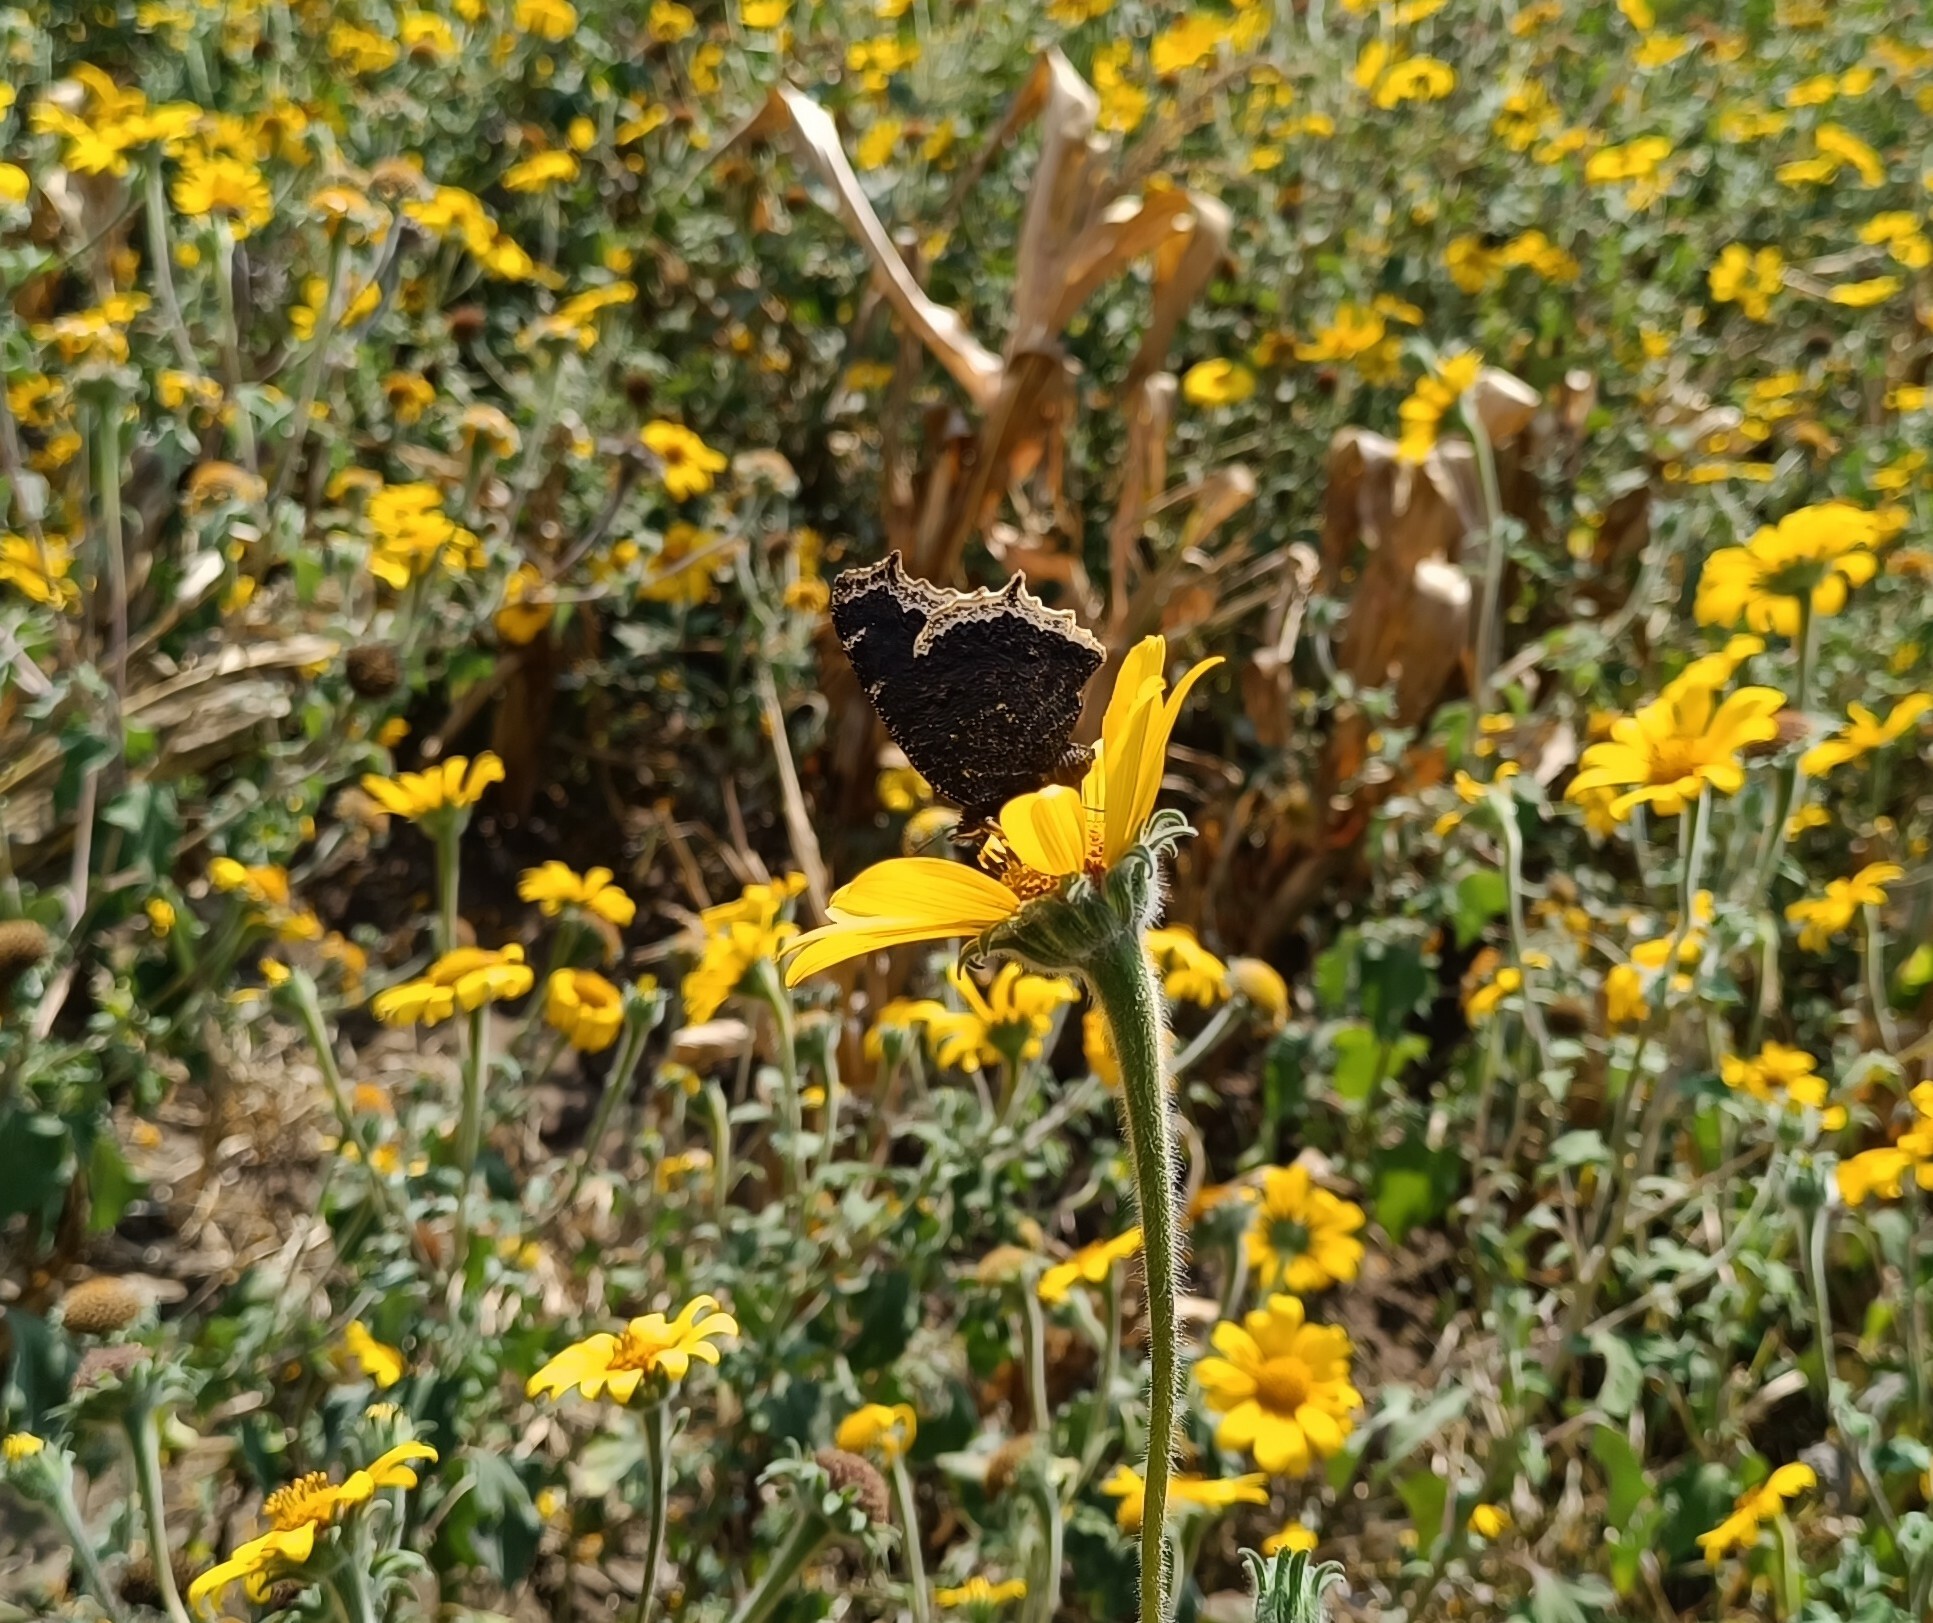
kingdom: Animalia
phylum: Arthropoda
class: Insecta
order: Lepidoptera
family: Nymphalidae
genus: Nymphalis
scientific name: Nymphalis antiopa
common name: Camberwell beauty
